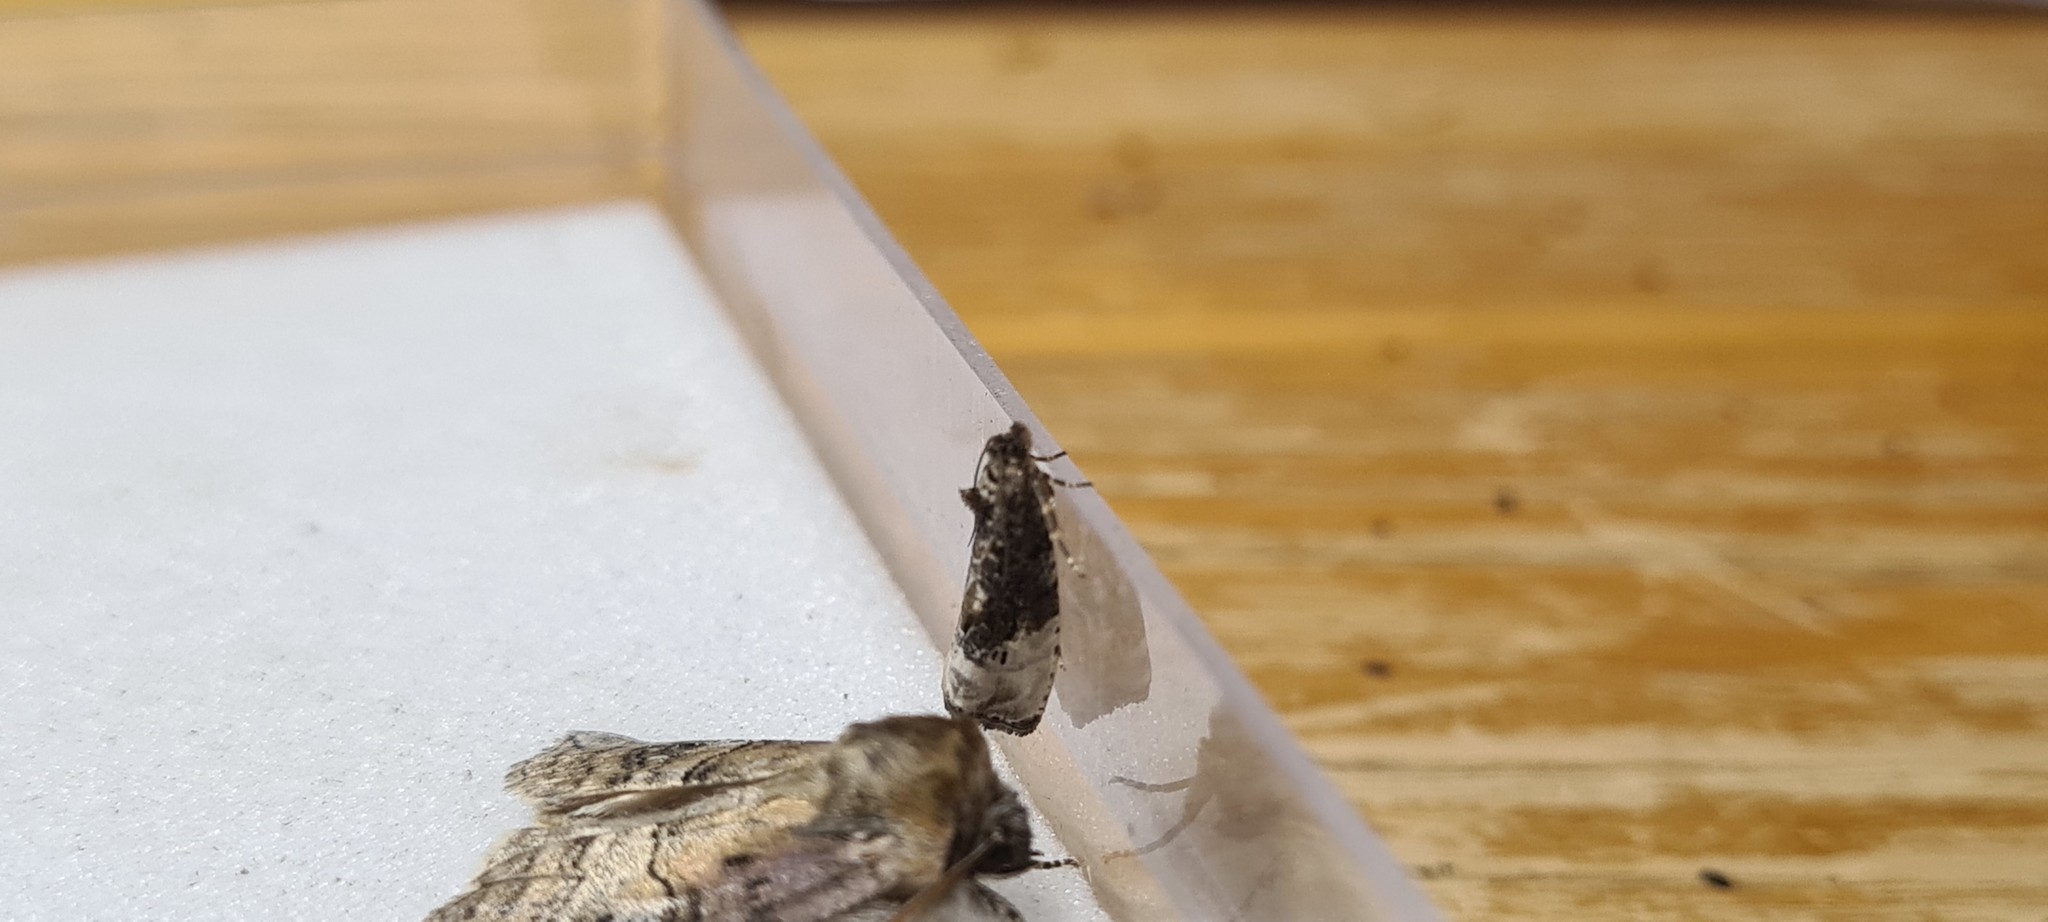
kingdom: Animalia
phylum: Arthropoda
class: Insecta
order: Lepidoptera
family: Tortricidae
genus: Hedya
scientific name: Hedya nubiferana
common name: Marbled orchard tortrix
